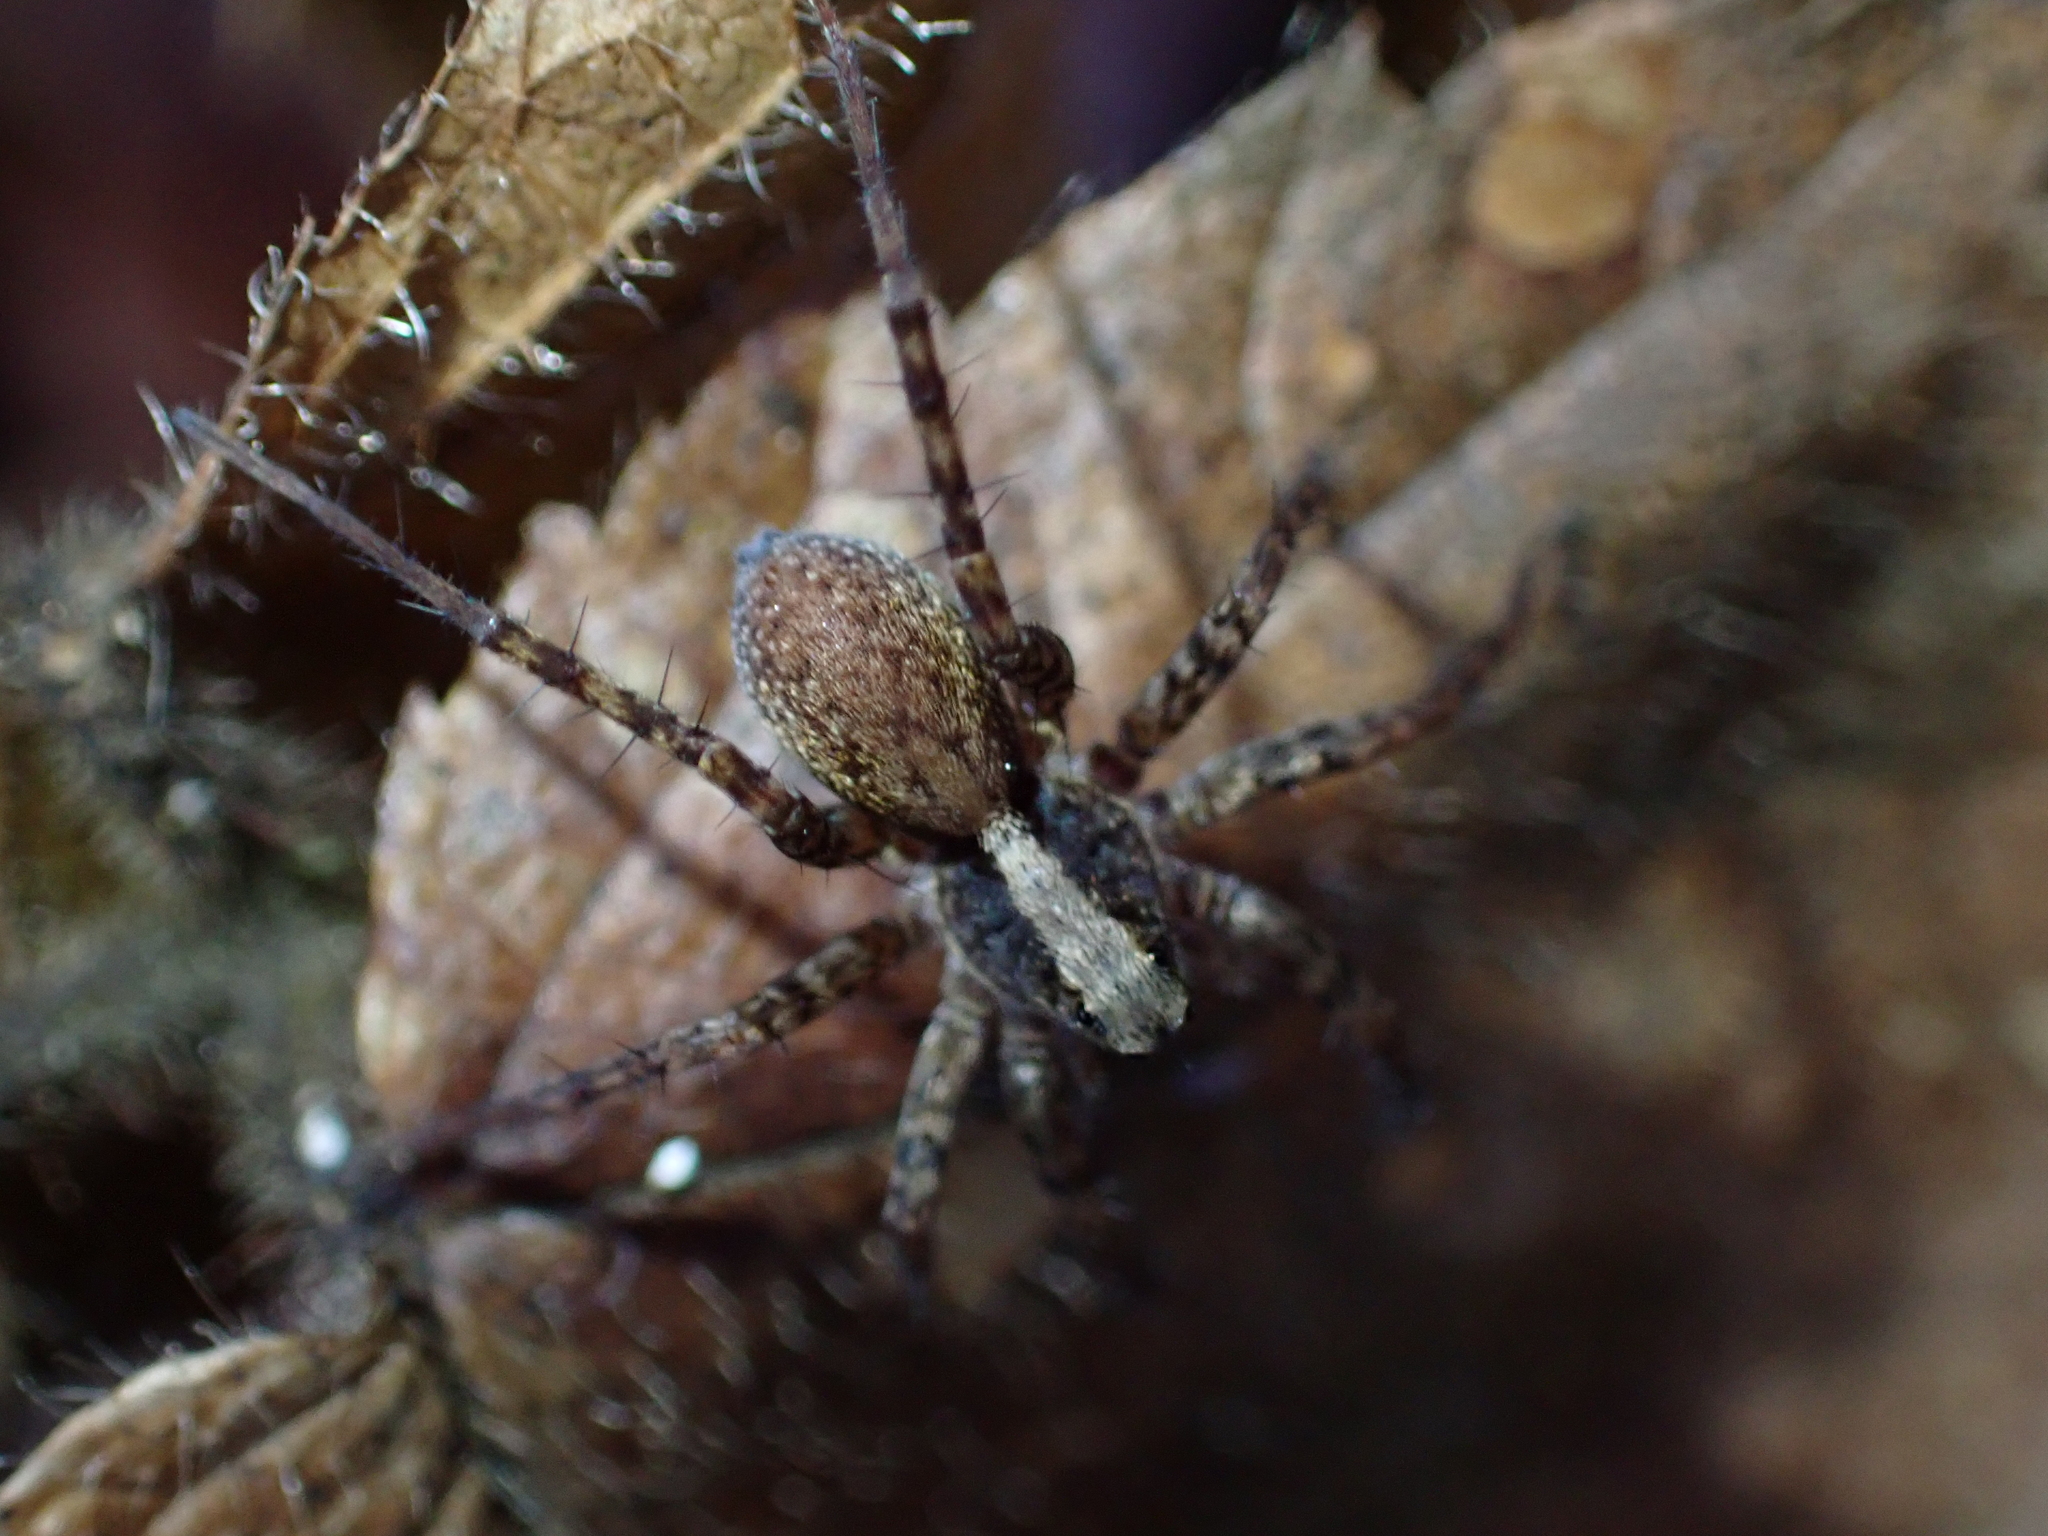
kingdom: Animalia
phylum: Arthropoda
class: Arachnida
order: Araneae
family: Lycosidae
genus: Pardosa
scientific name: Pardosa
